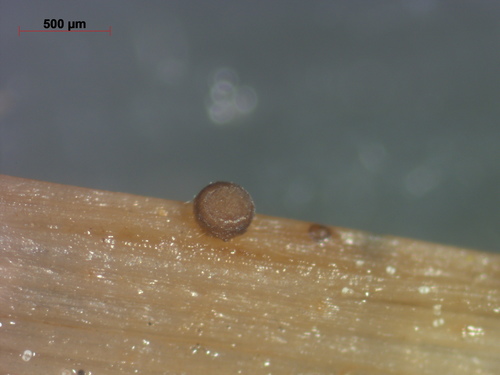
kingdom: Fungi
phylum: Ascomycota
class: Leotiomycetes
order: Helotiales
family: Mollisiaceae
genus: Nimbomollisia
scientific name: Nimbomollisia eriophori
